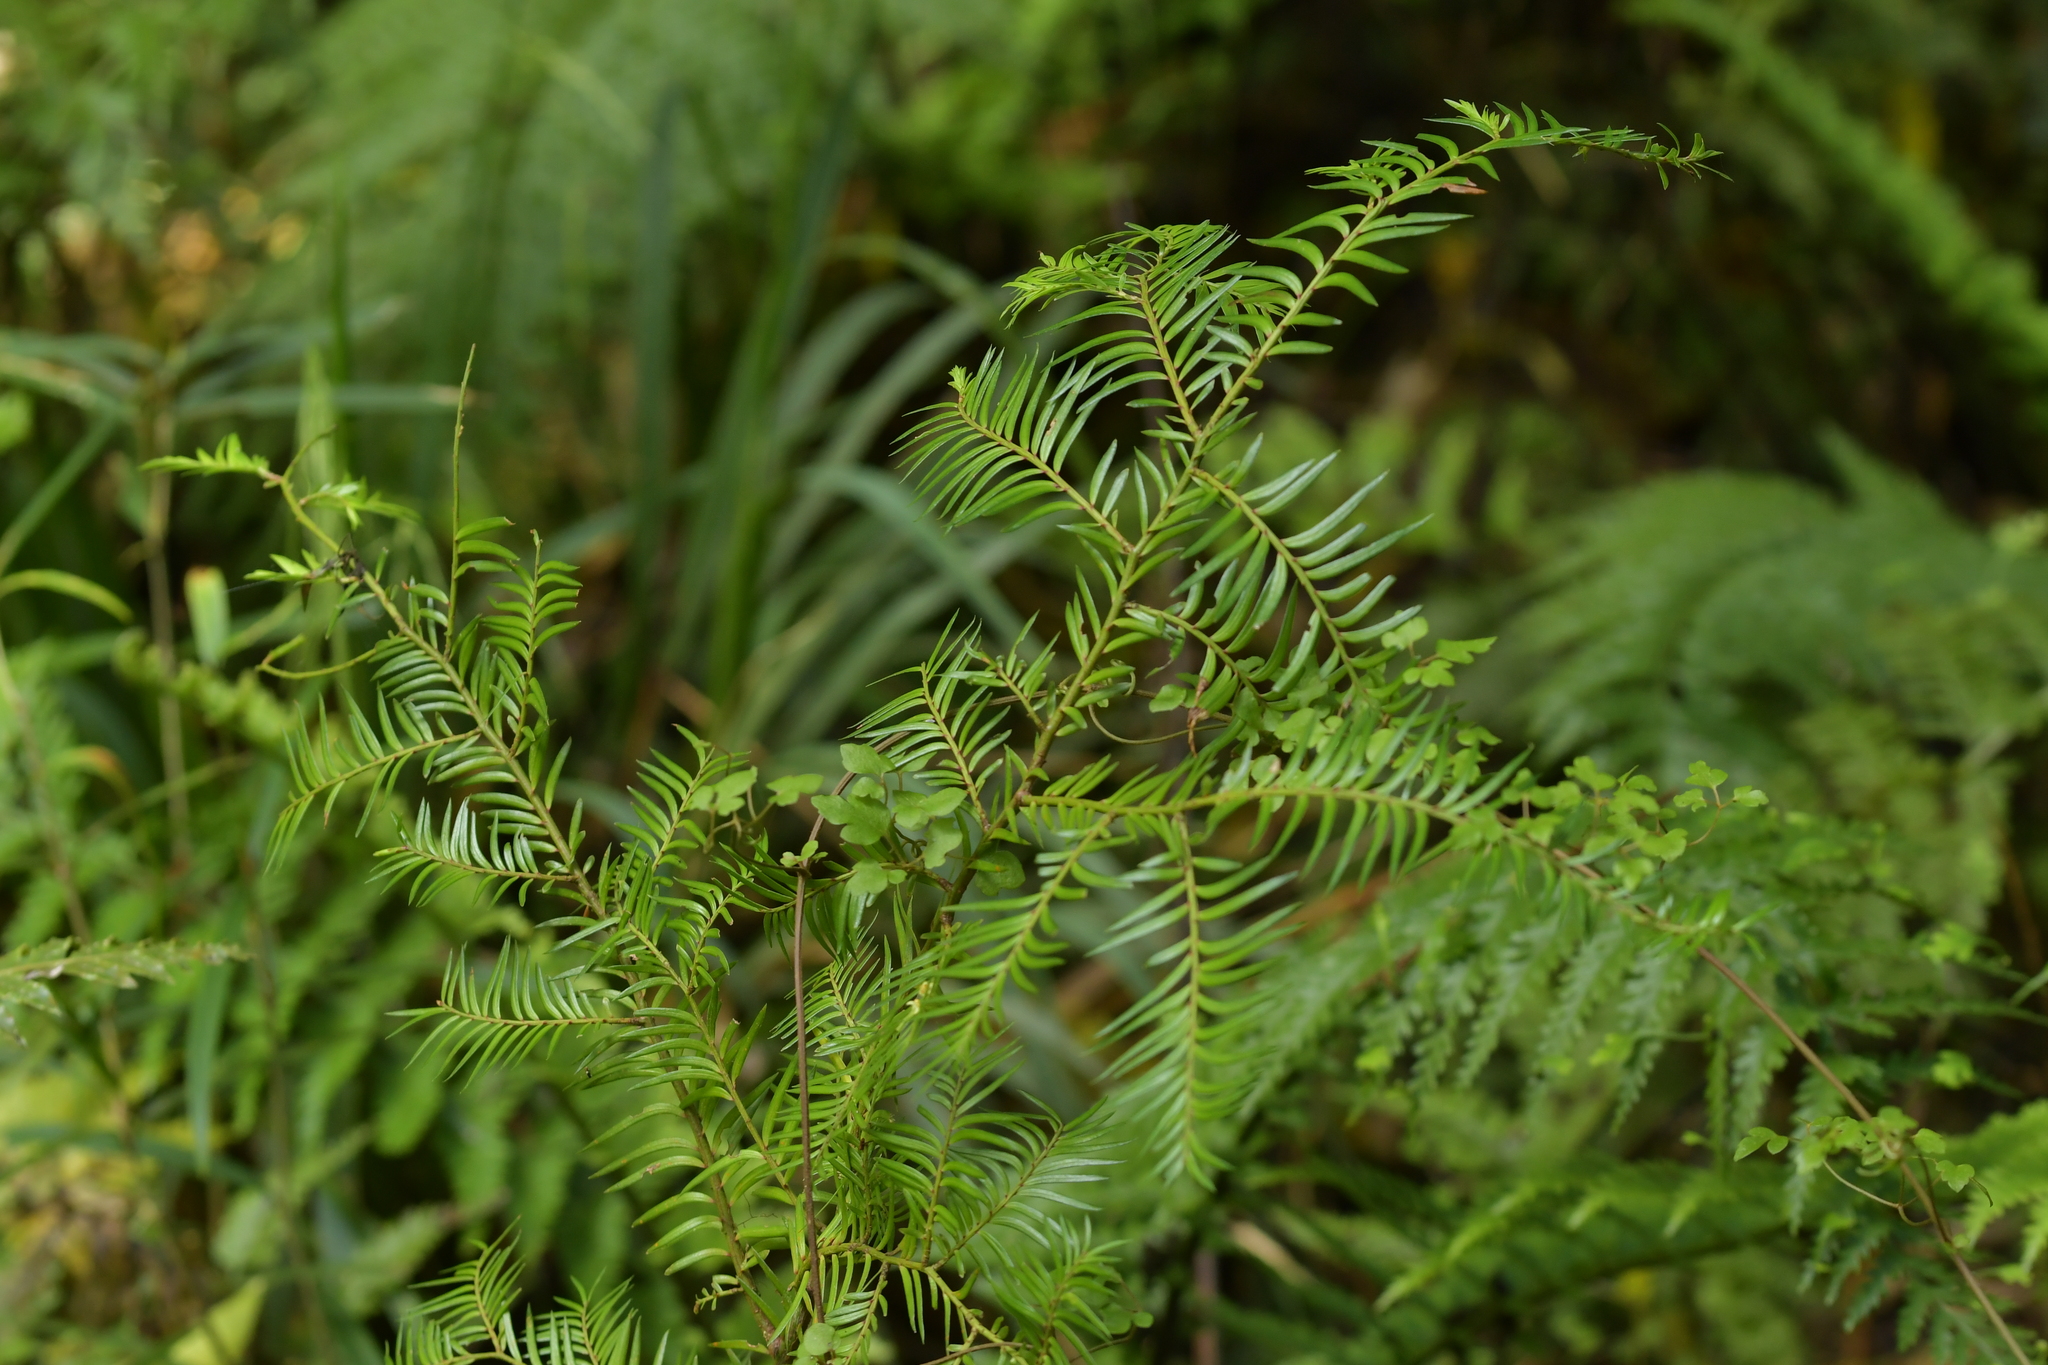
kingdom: Plantae
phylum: Tracheophyta
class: Pinopsida
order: Pinales
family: Podocarpaceae
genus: Prumnopitys
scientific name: Prumnopitys ferruginea
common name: Brown pine
